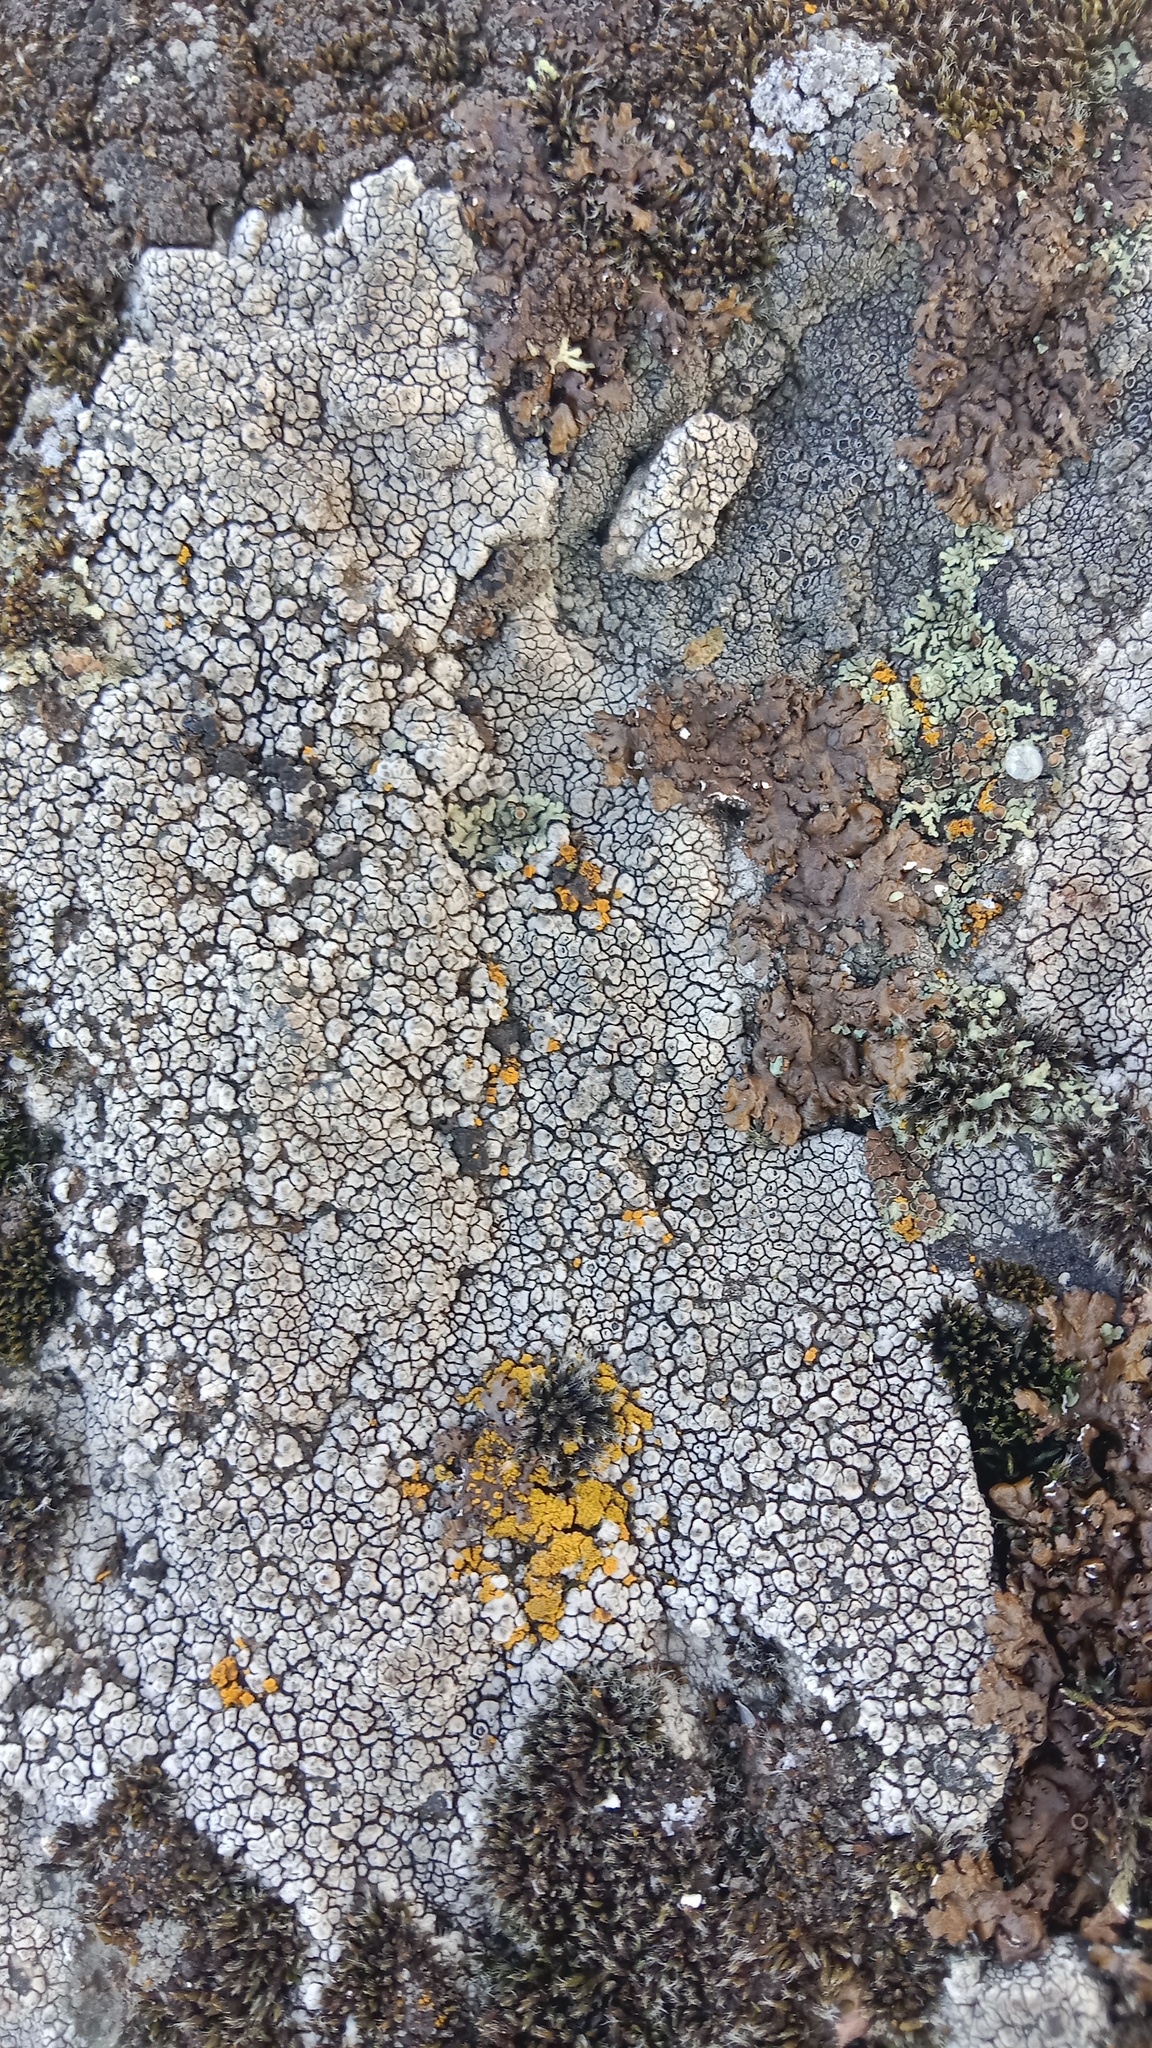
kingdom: Fungi
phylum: Ascomycota
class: Lecanoromycetes
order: Pertusariales
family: Megasporaceae
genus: Aspiciliella
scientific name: Aspiciliella intermutans
